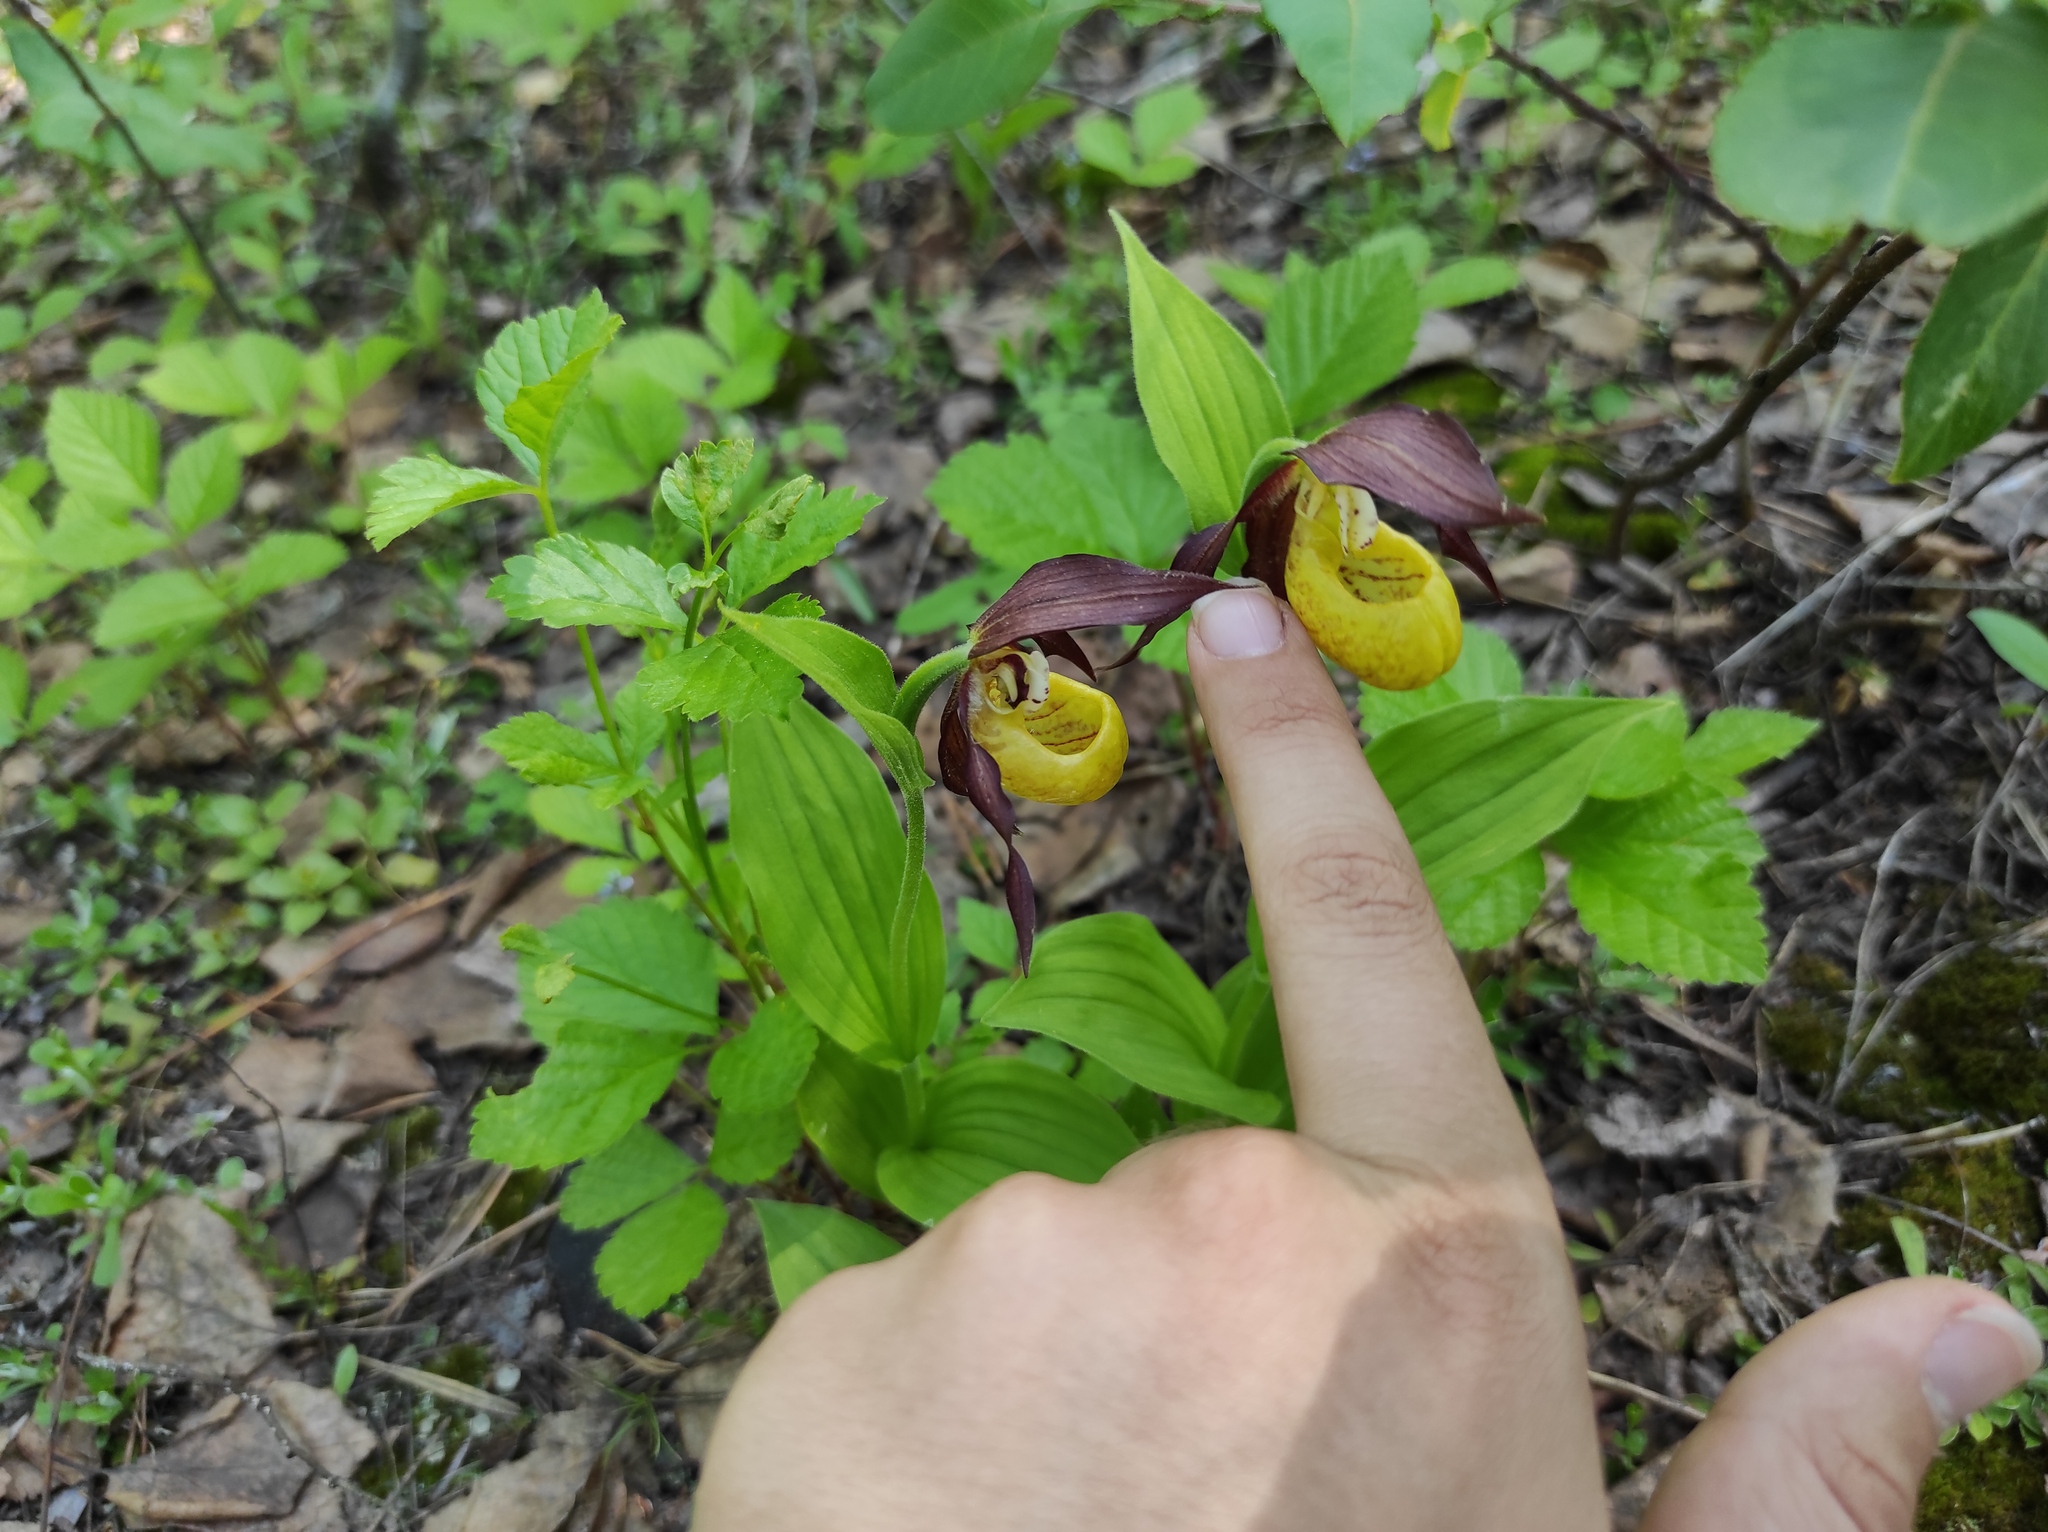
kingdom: Plantae
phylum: Tracheophyta
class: Liliopsida
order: Asparagales
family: Orchidaceae
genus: Cypripedium
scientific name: Cypripedium calceolus
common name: Lady's-slipper
